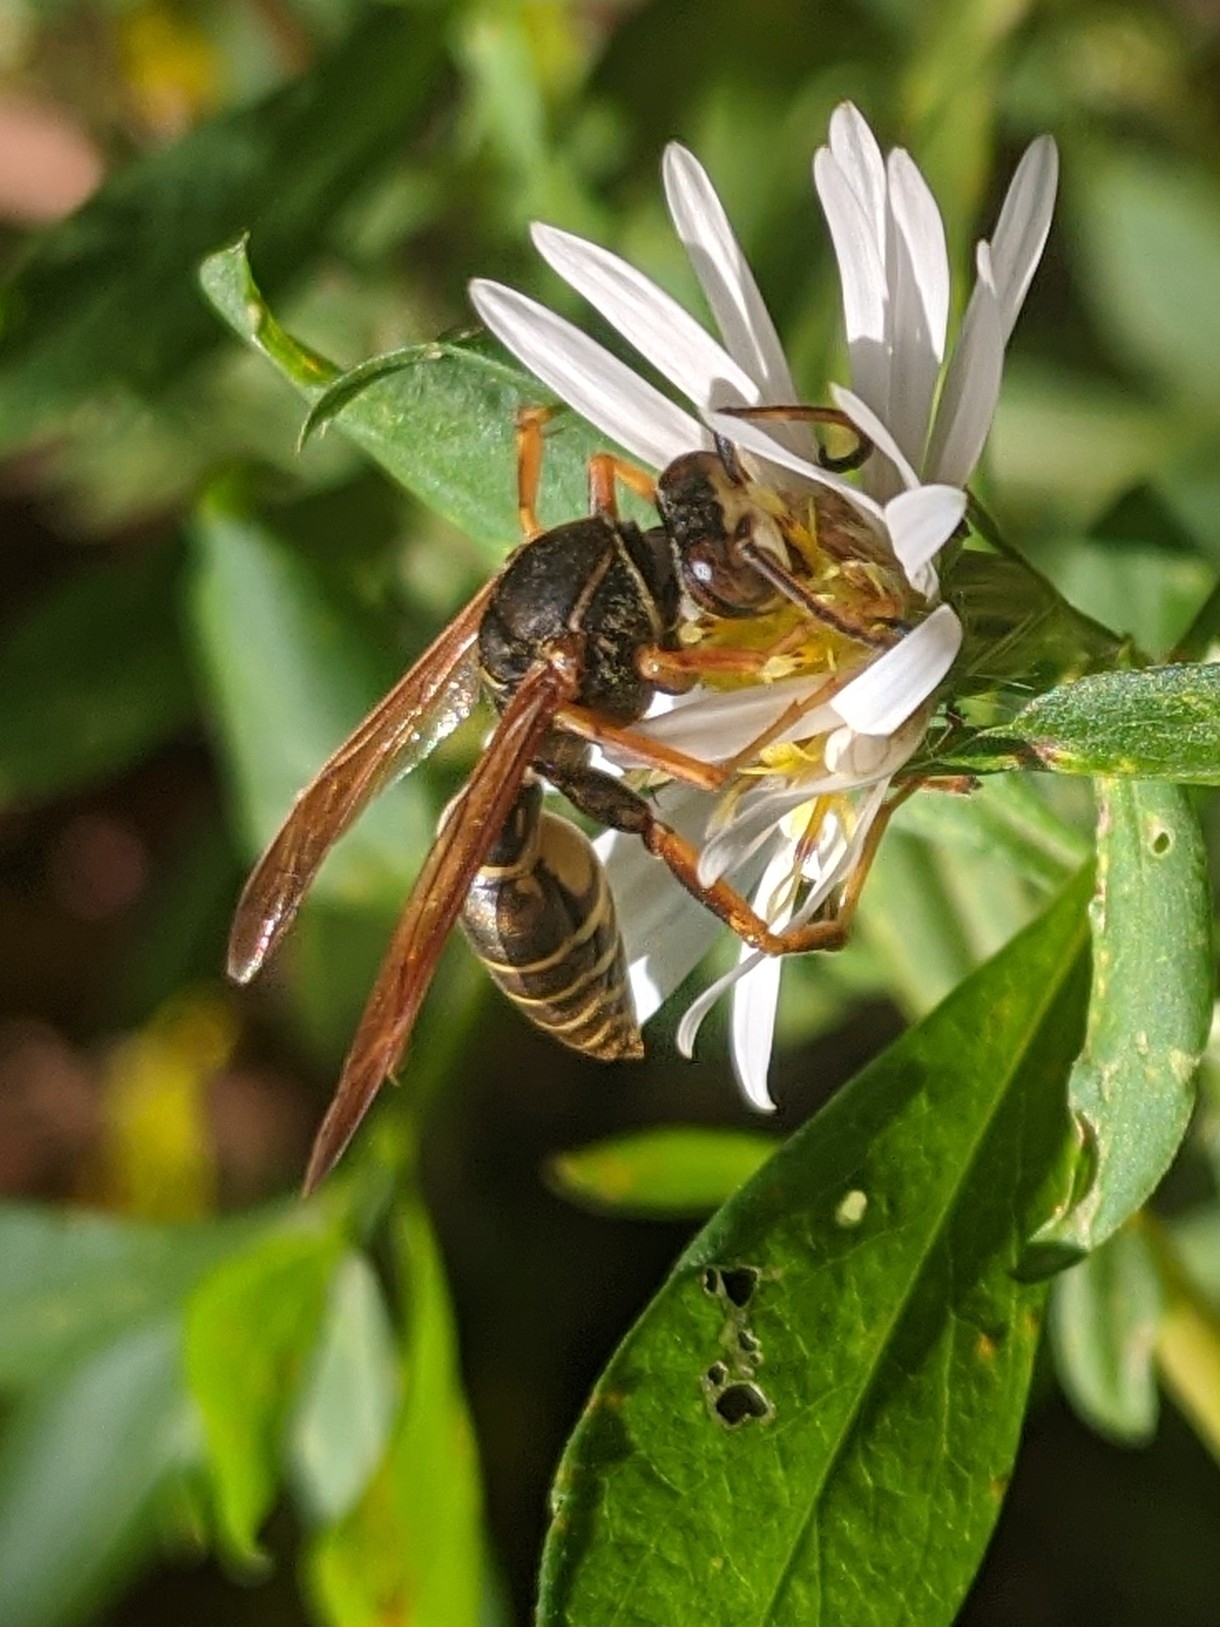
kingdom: Animalia
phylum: Arthropoda
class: Insecta
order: Hymenoptera
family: Eumenidae
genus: Polistes
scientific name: Polistes fuscatus
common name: Dark paper wasp
